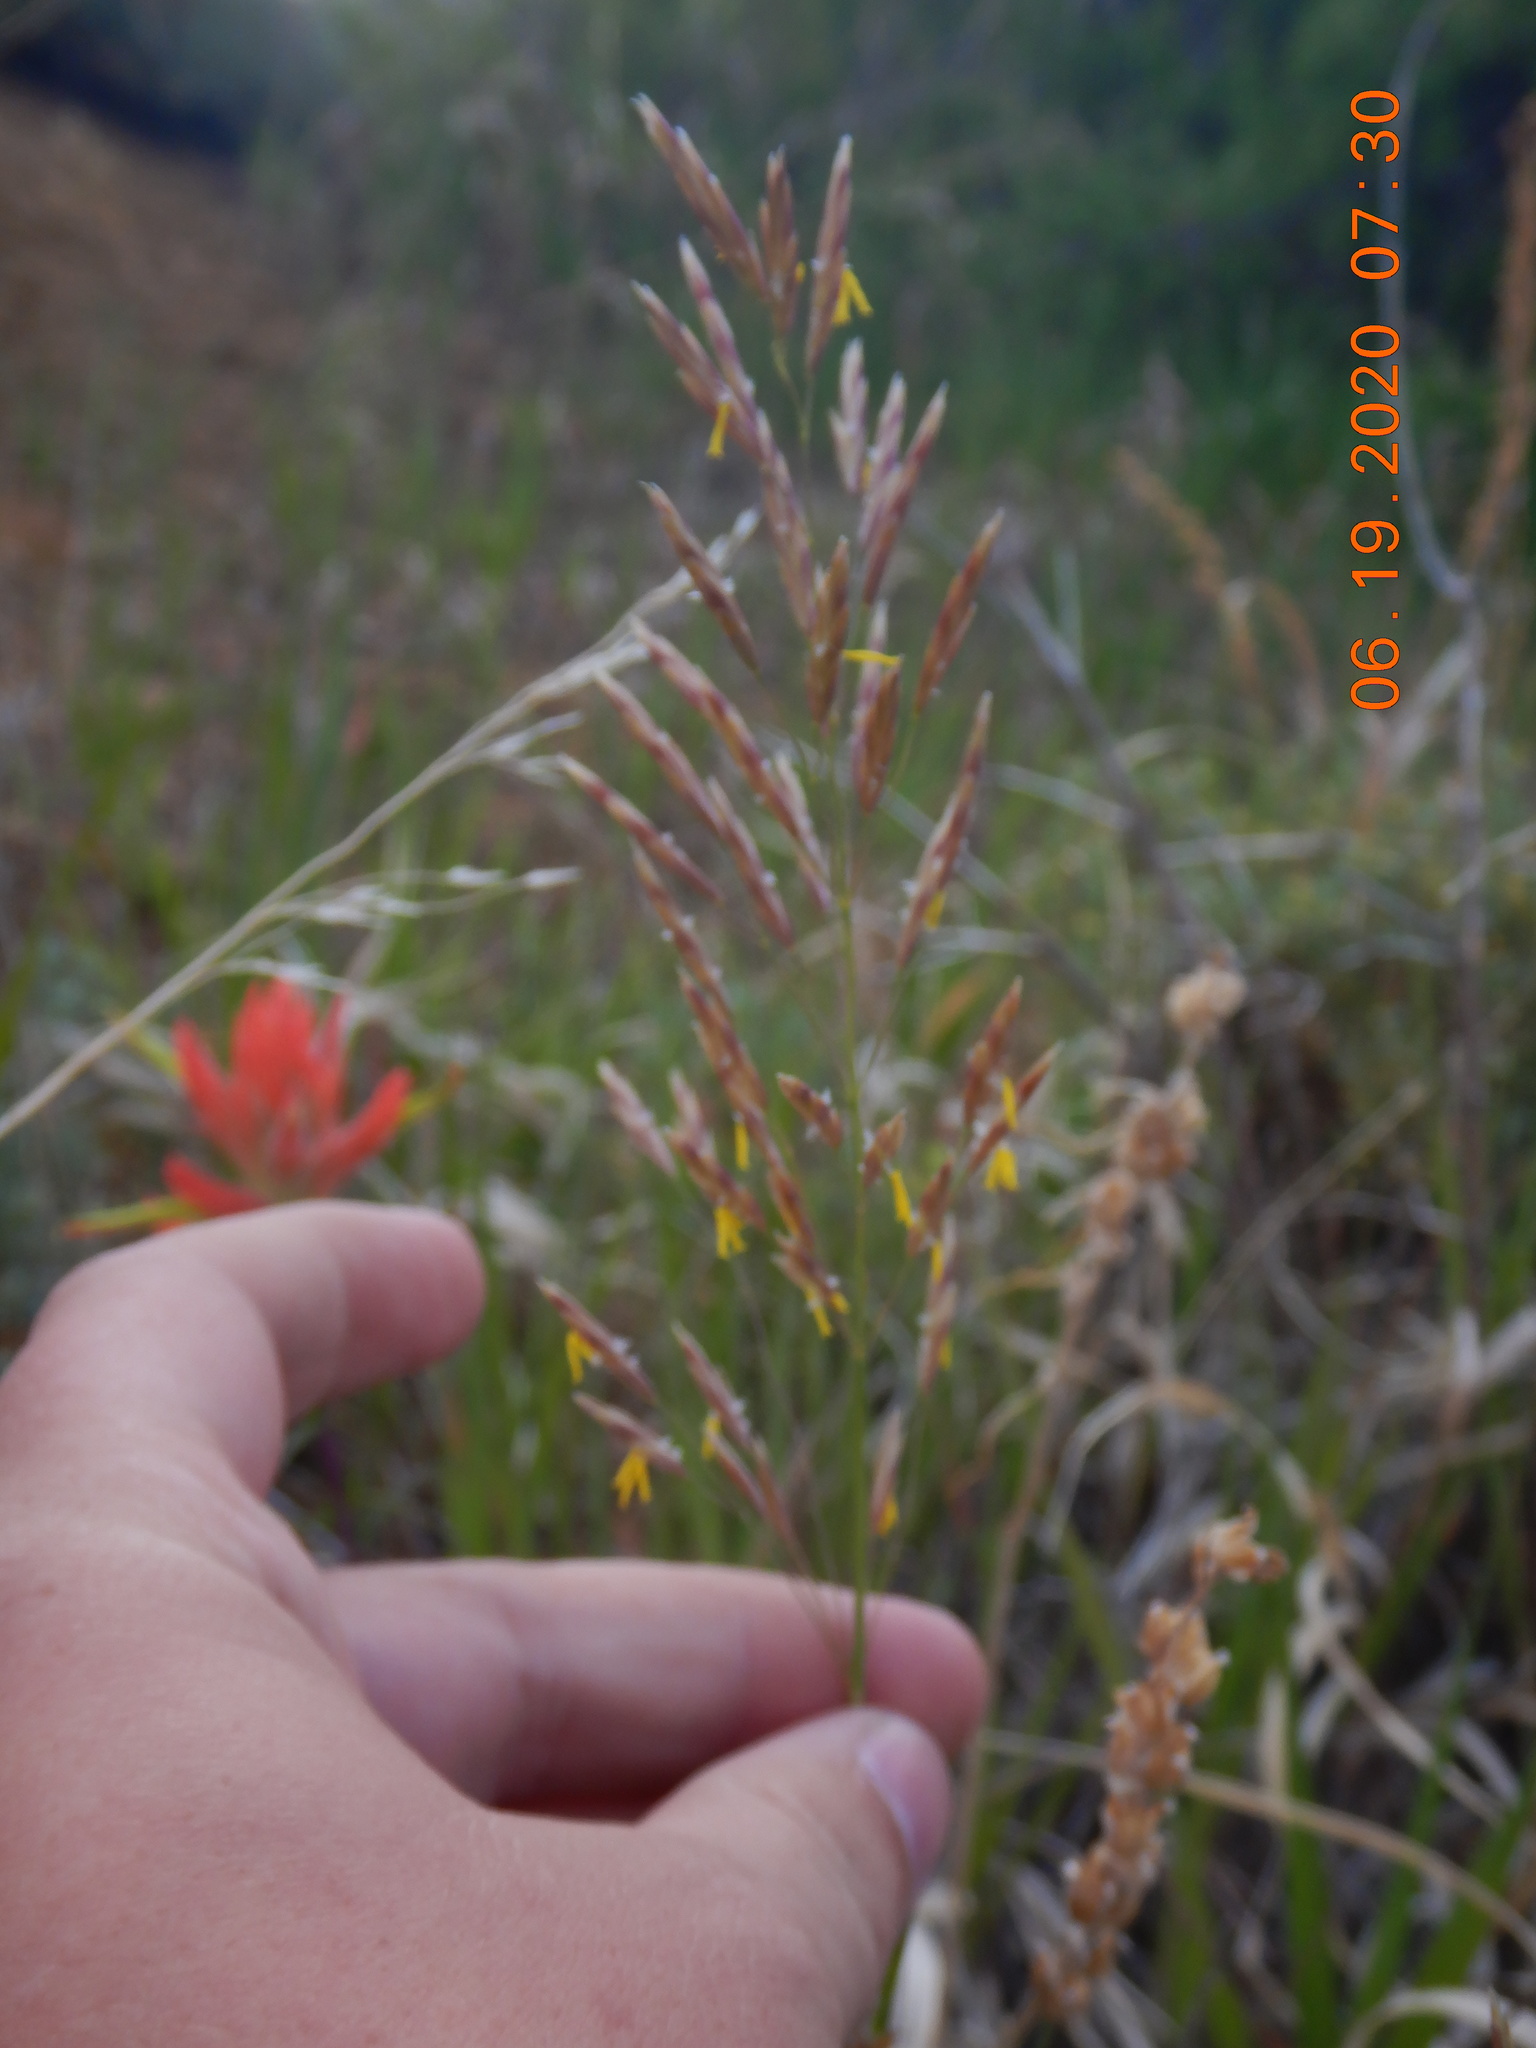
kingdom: Plantae
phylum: Tracheophyta
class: Liliopsida
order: Poales
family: Poaceae
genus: Bromus
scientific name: Bromus inermis
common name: Smooth brome
